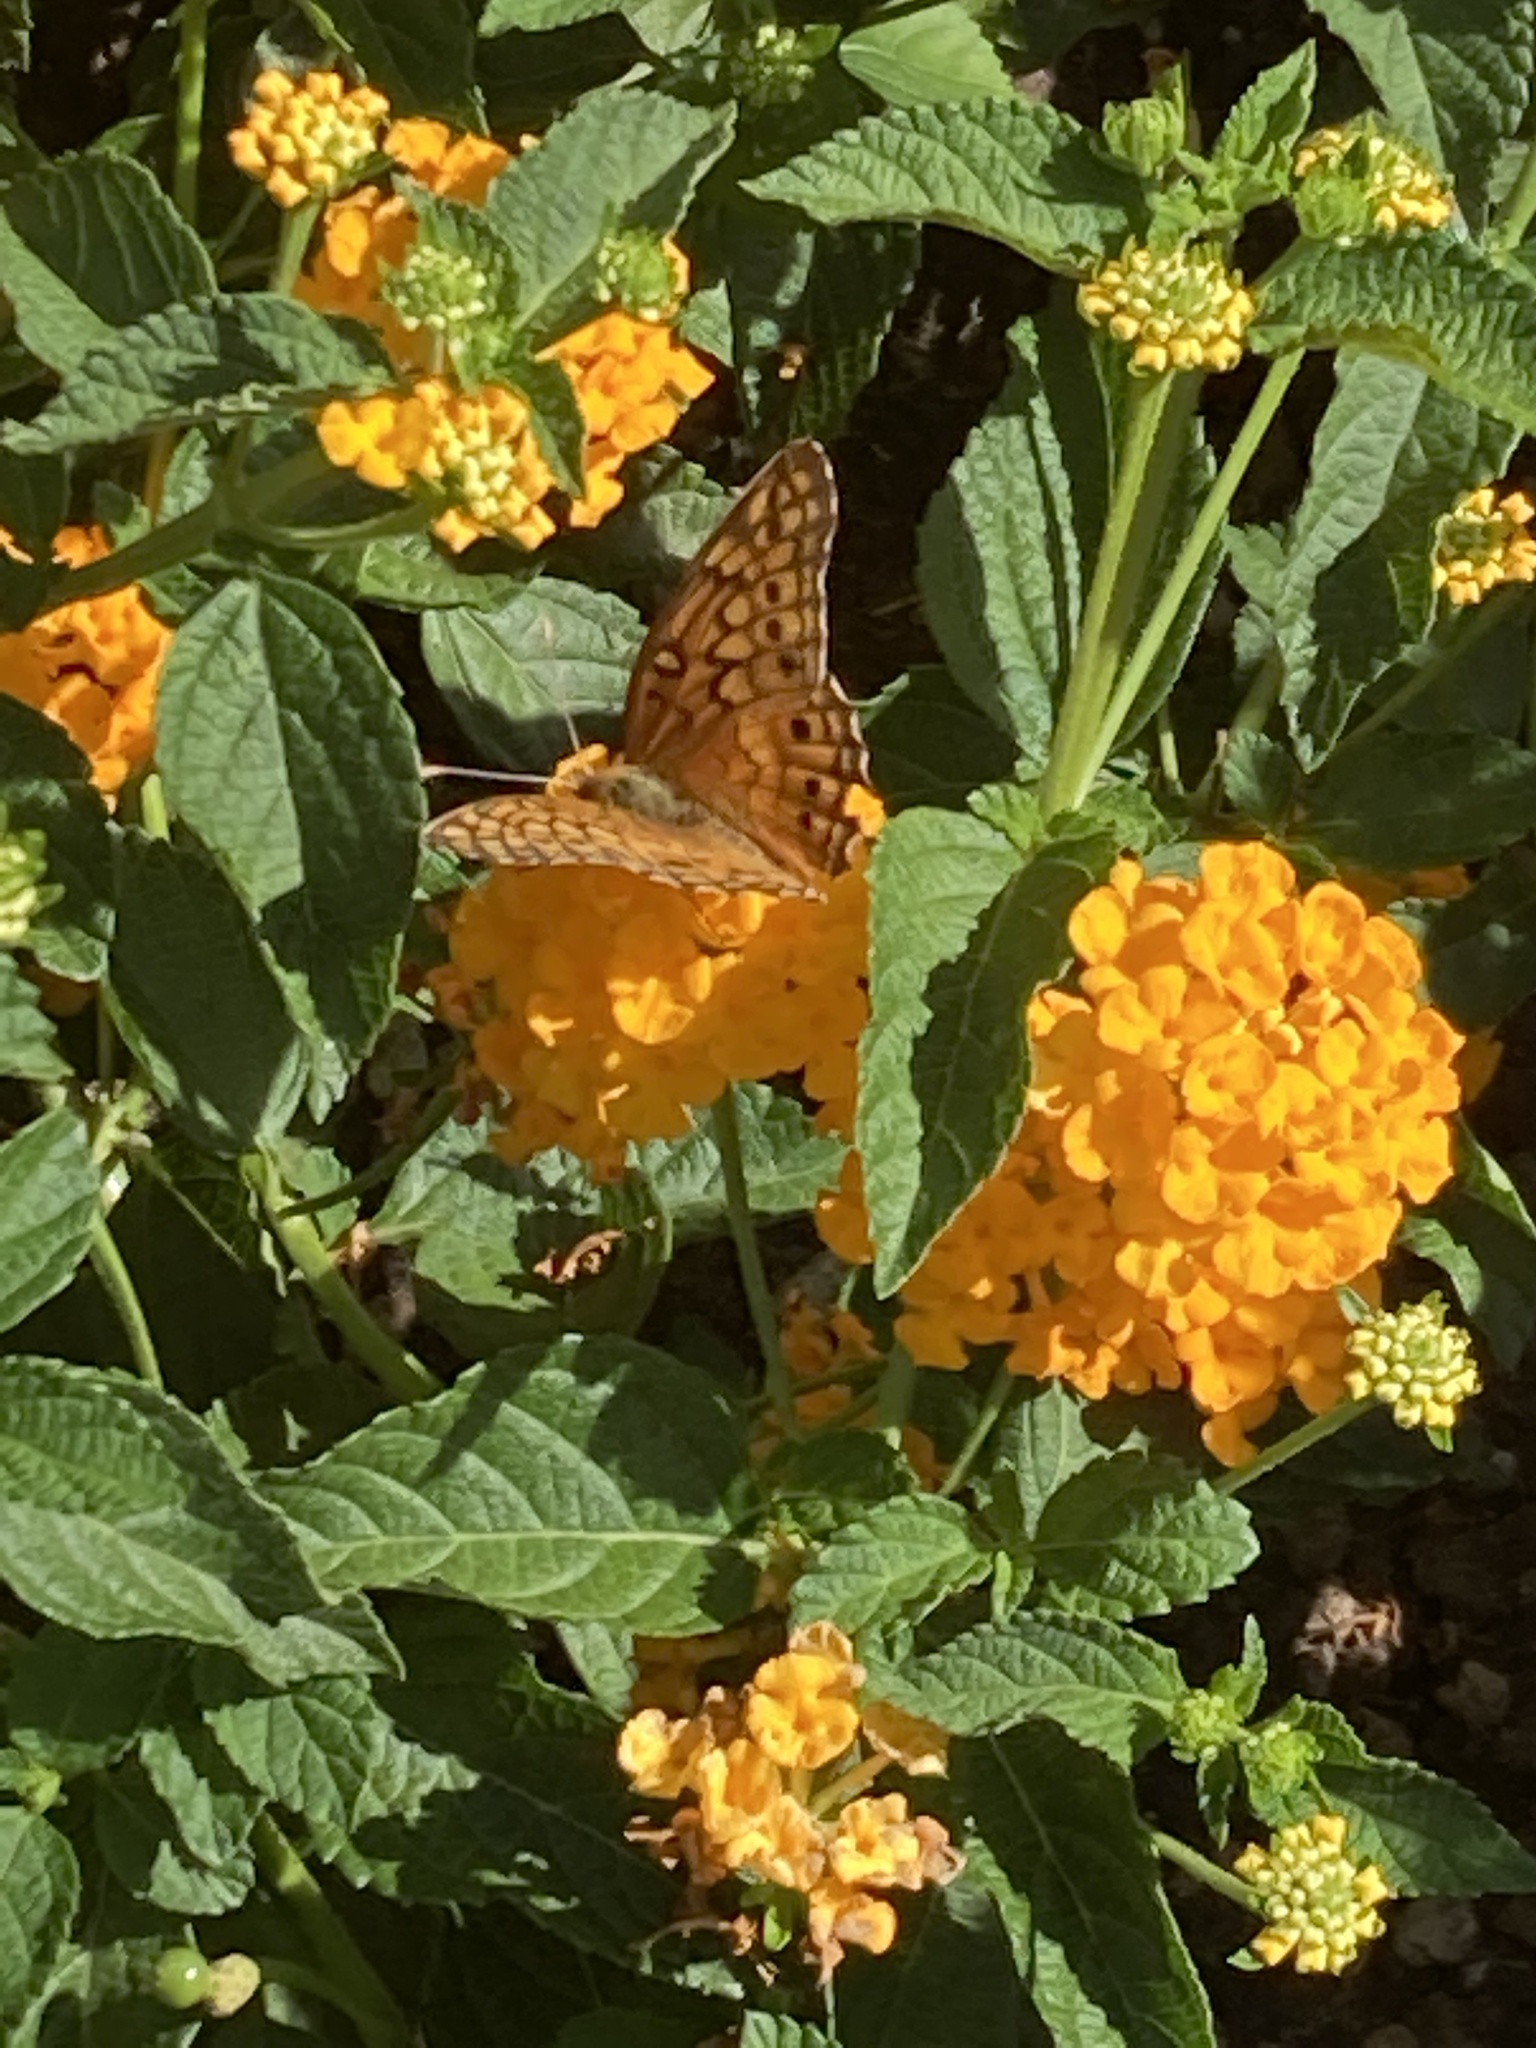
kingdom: Animalia
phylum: Arthropoda
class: Insecta
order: Lepidoptera
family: Nymphalidae
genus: Euptoieta
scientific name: Euptoieta claudia
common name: Variegated fritillary
